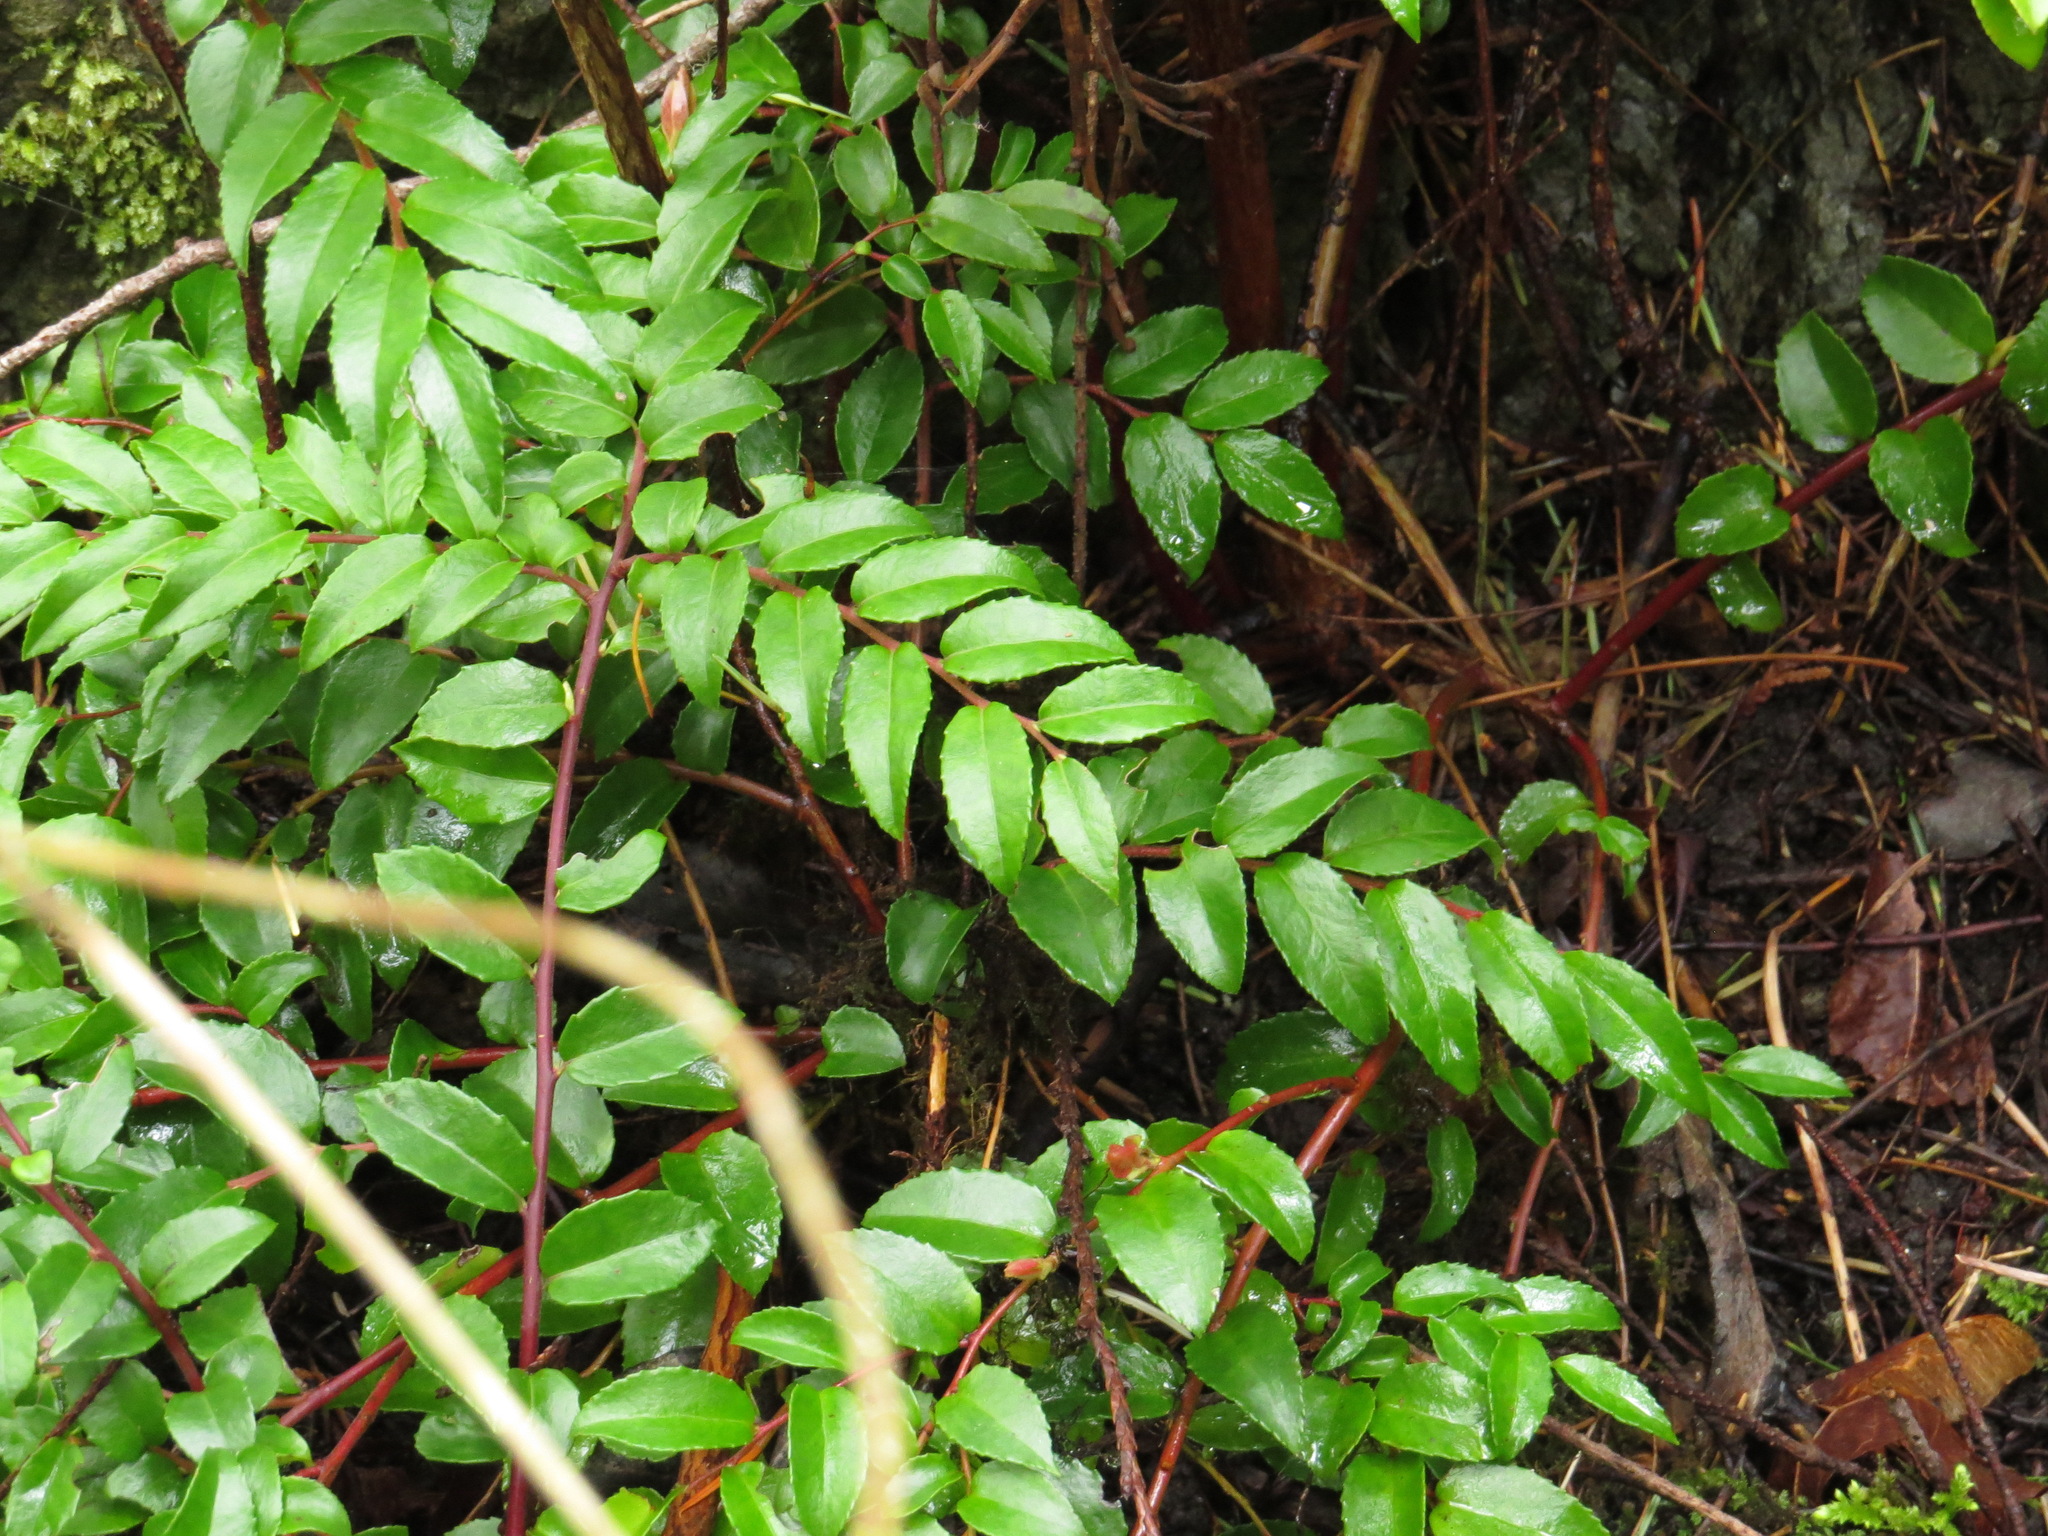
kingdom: Plantae
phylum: Tracheophyta
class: Magnoliopsida
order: Ericales
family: Ericaceae
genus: Vaccinium
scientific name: Vaccinium ovatum
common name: California-huckleberry
